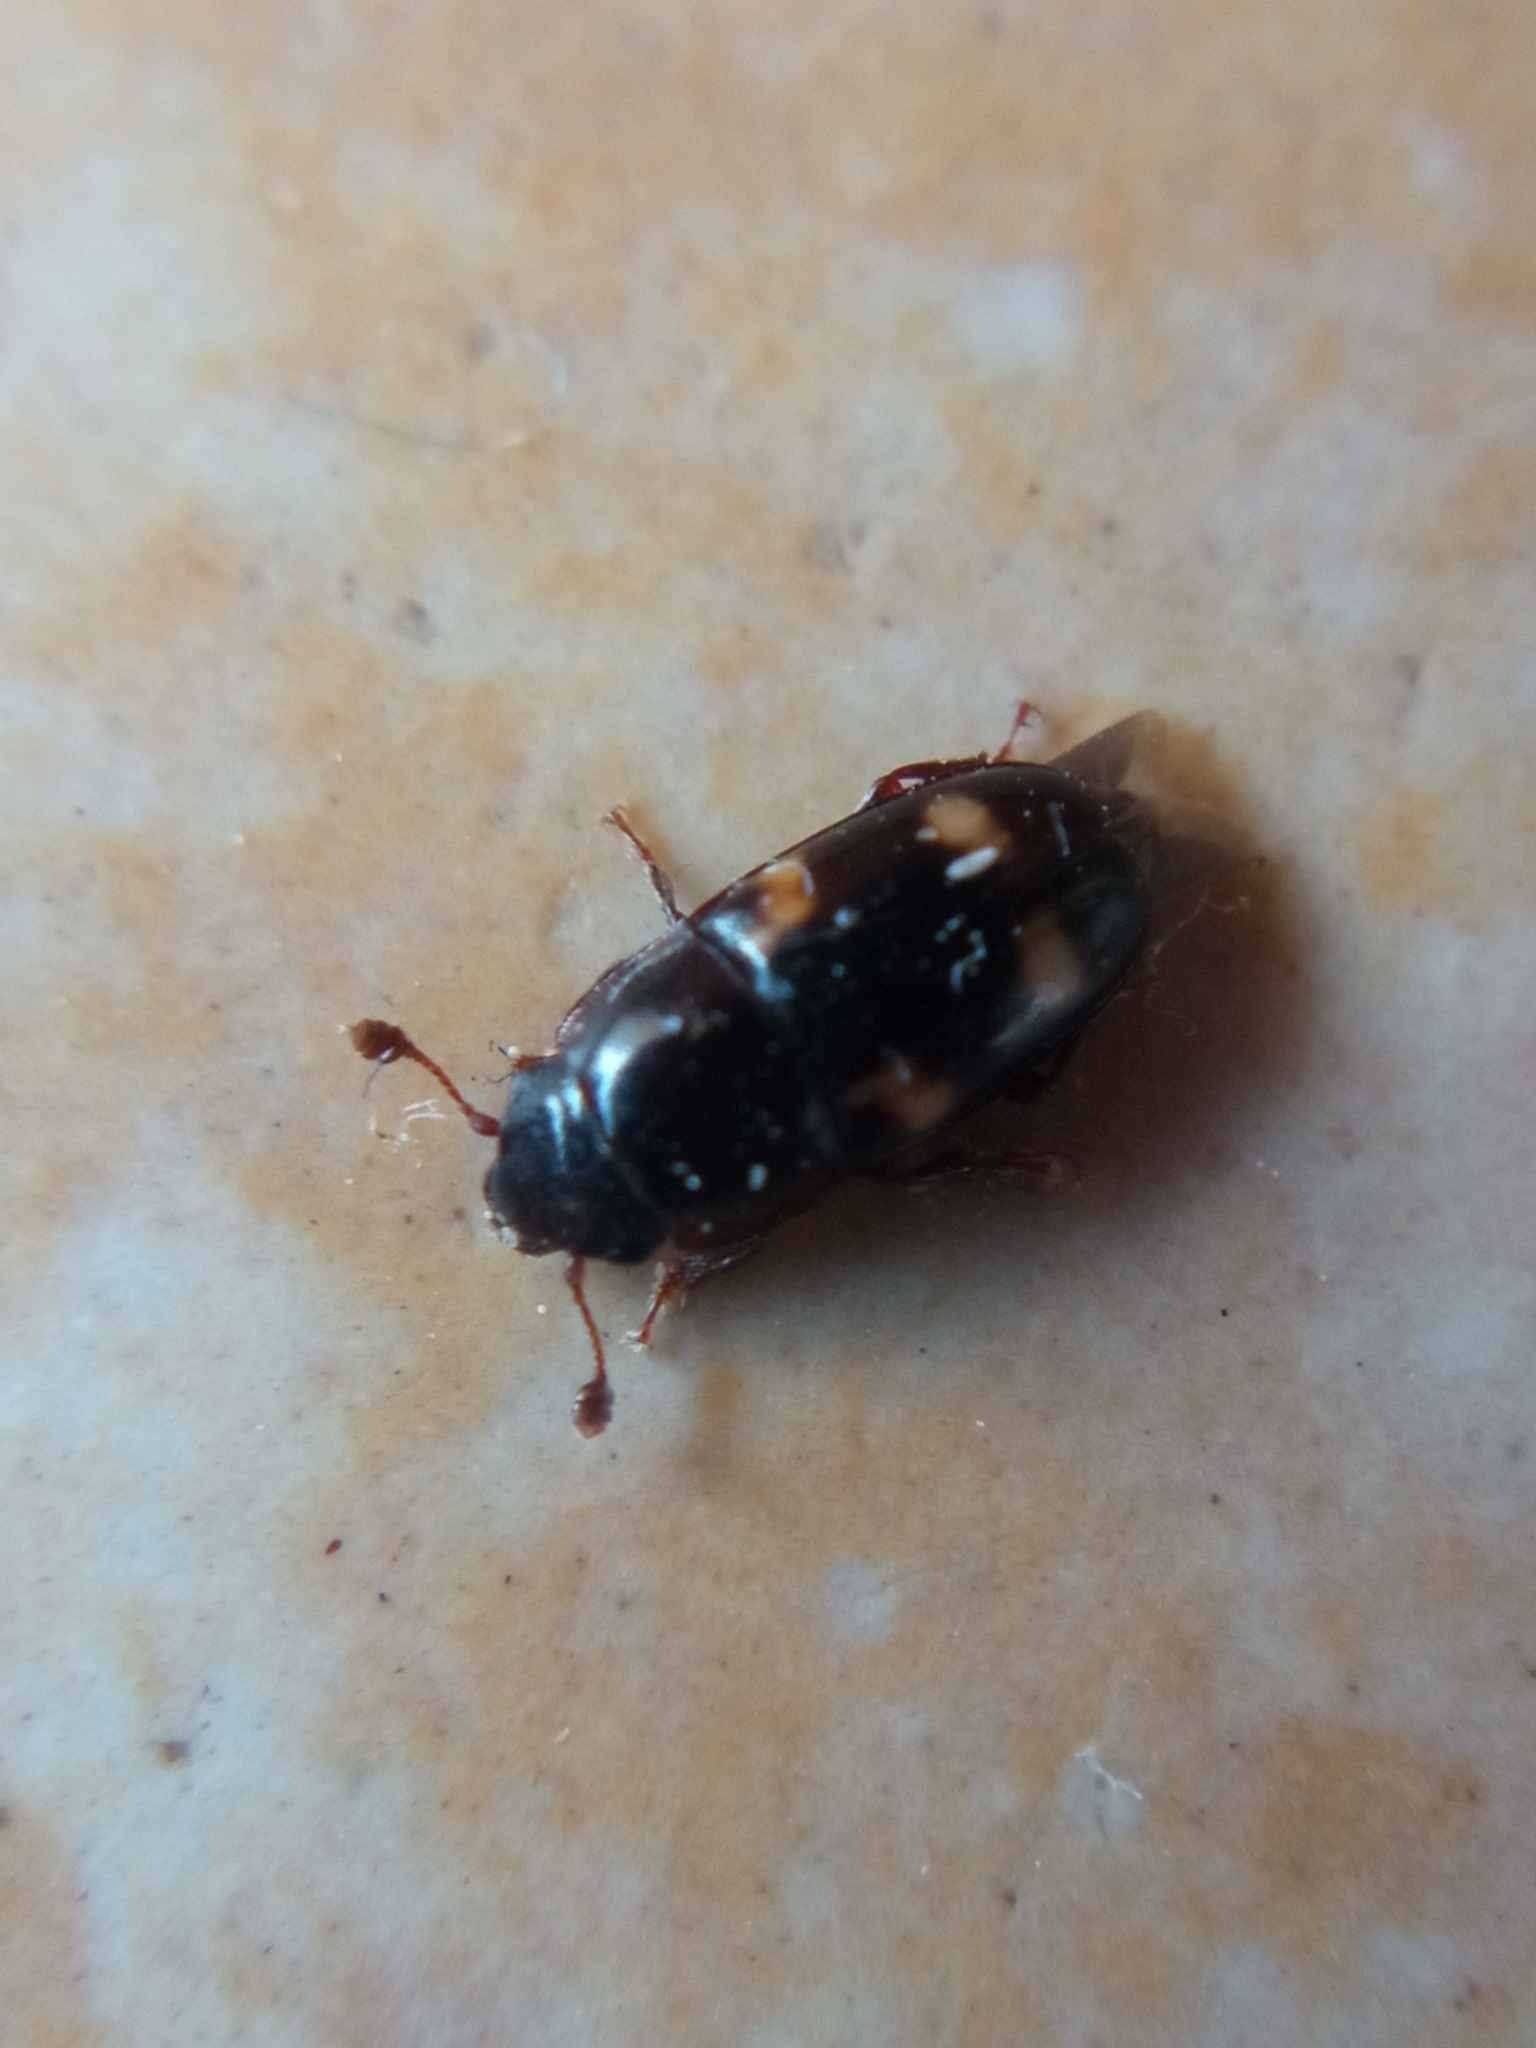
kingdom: Animalia
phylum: Arthropoda
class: Insecta
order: Coleoptera
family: Nitidulidae
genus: Glischrochilus
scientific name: Glischrochilus quadrisignatus
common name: Picnic beetle
